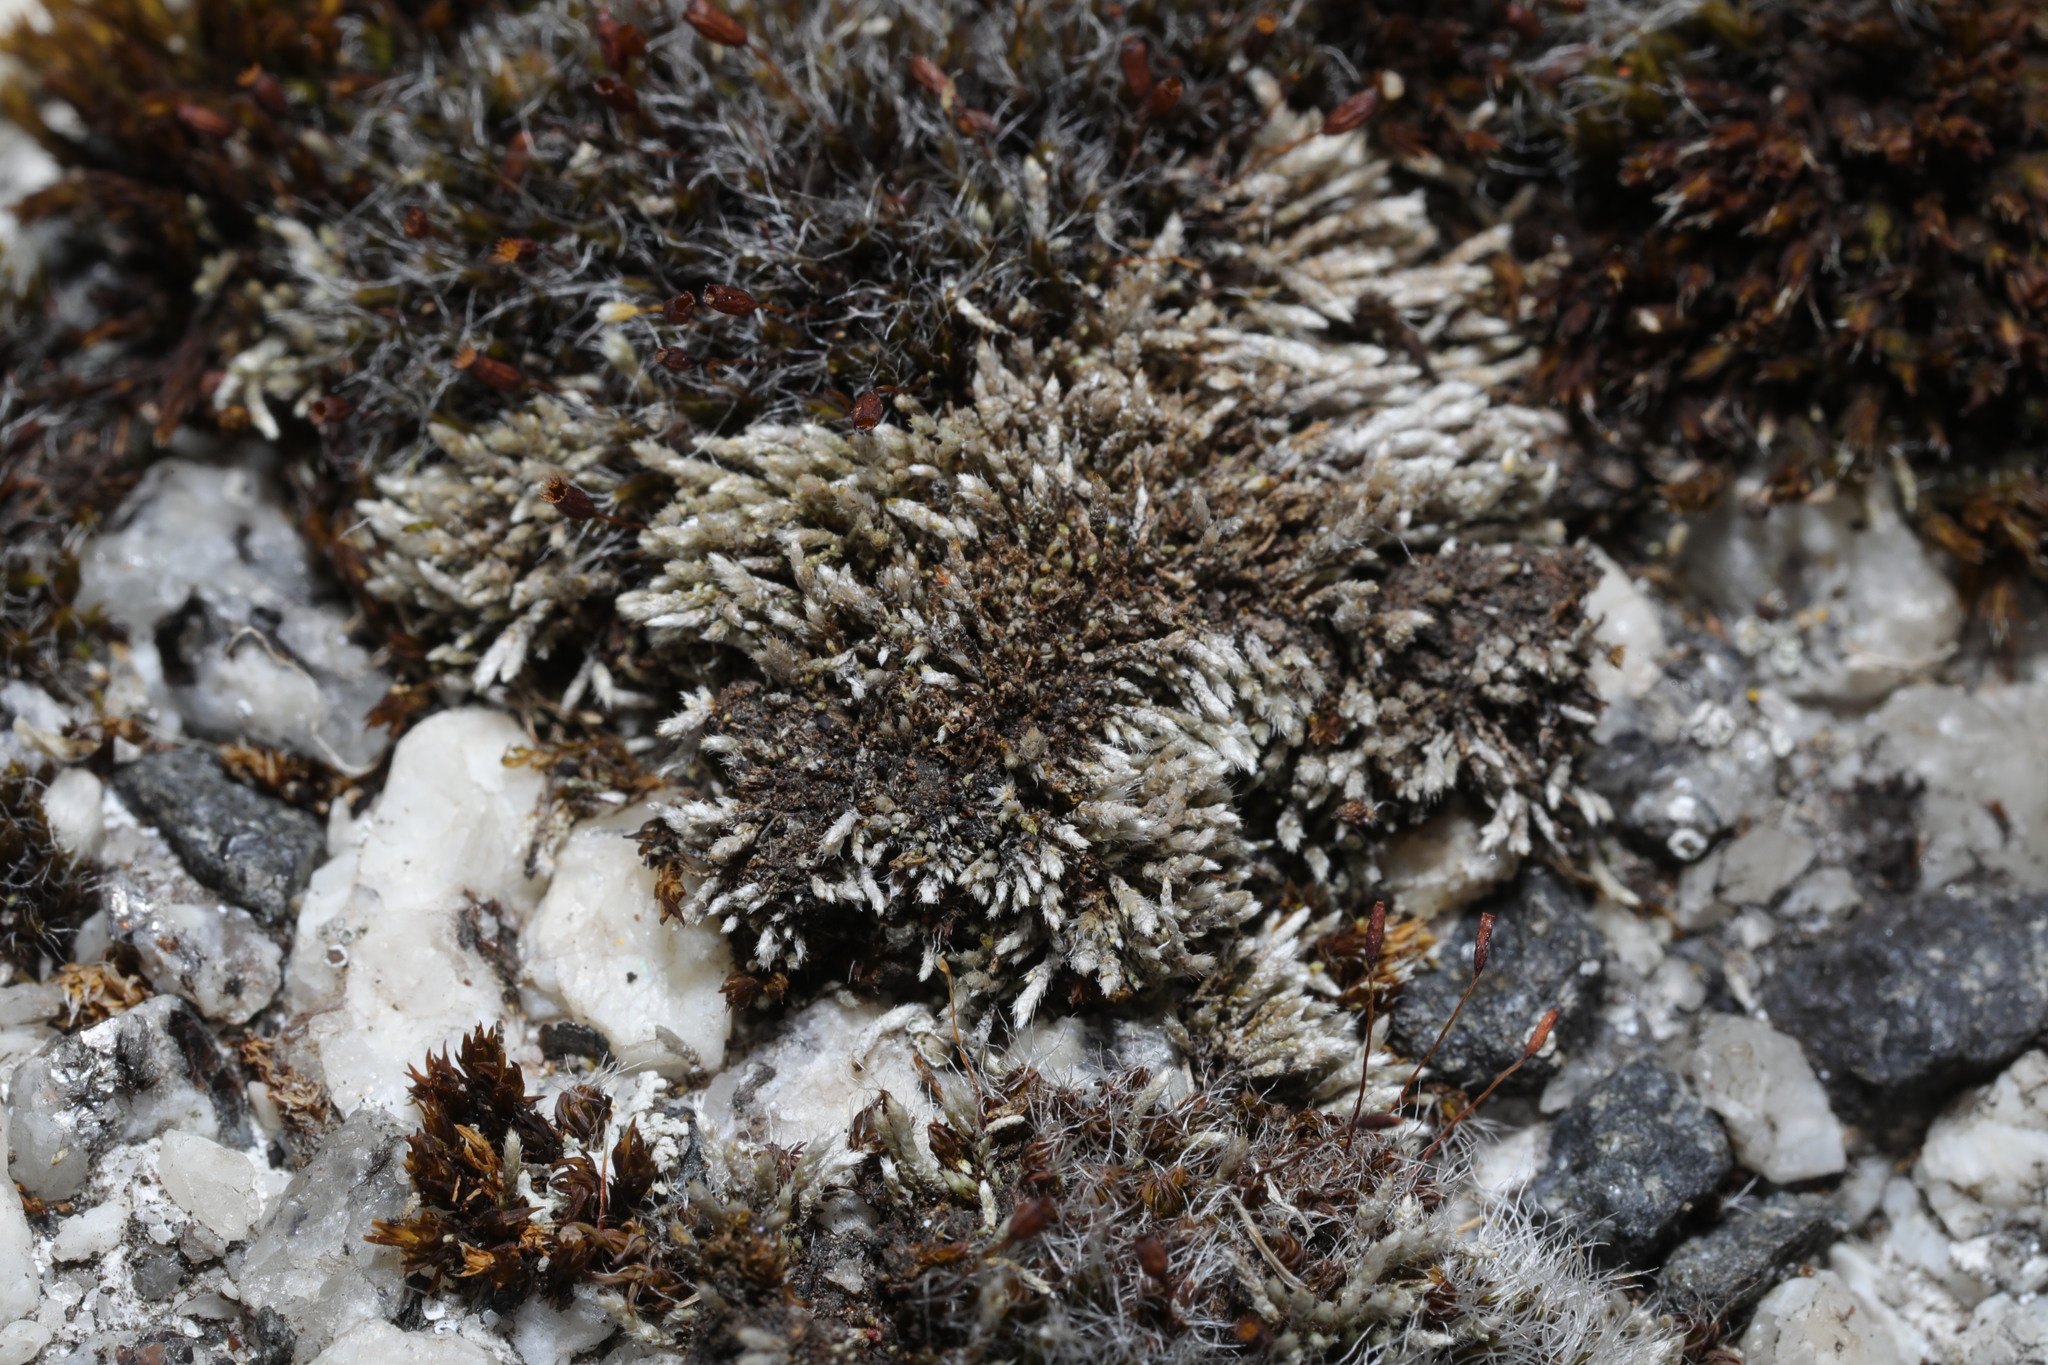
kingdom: Plantae
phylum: Bryophyta
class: Bryopsida
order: Bryales
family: Bryaceae
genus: Bryum
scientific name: Bryum argenteum
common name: Silver-moss
